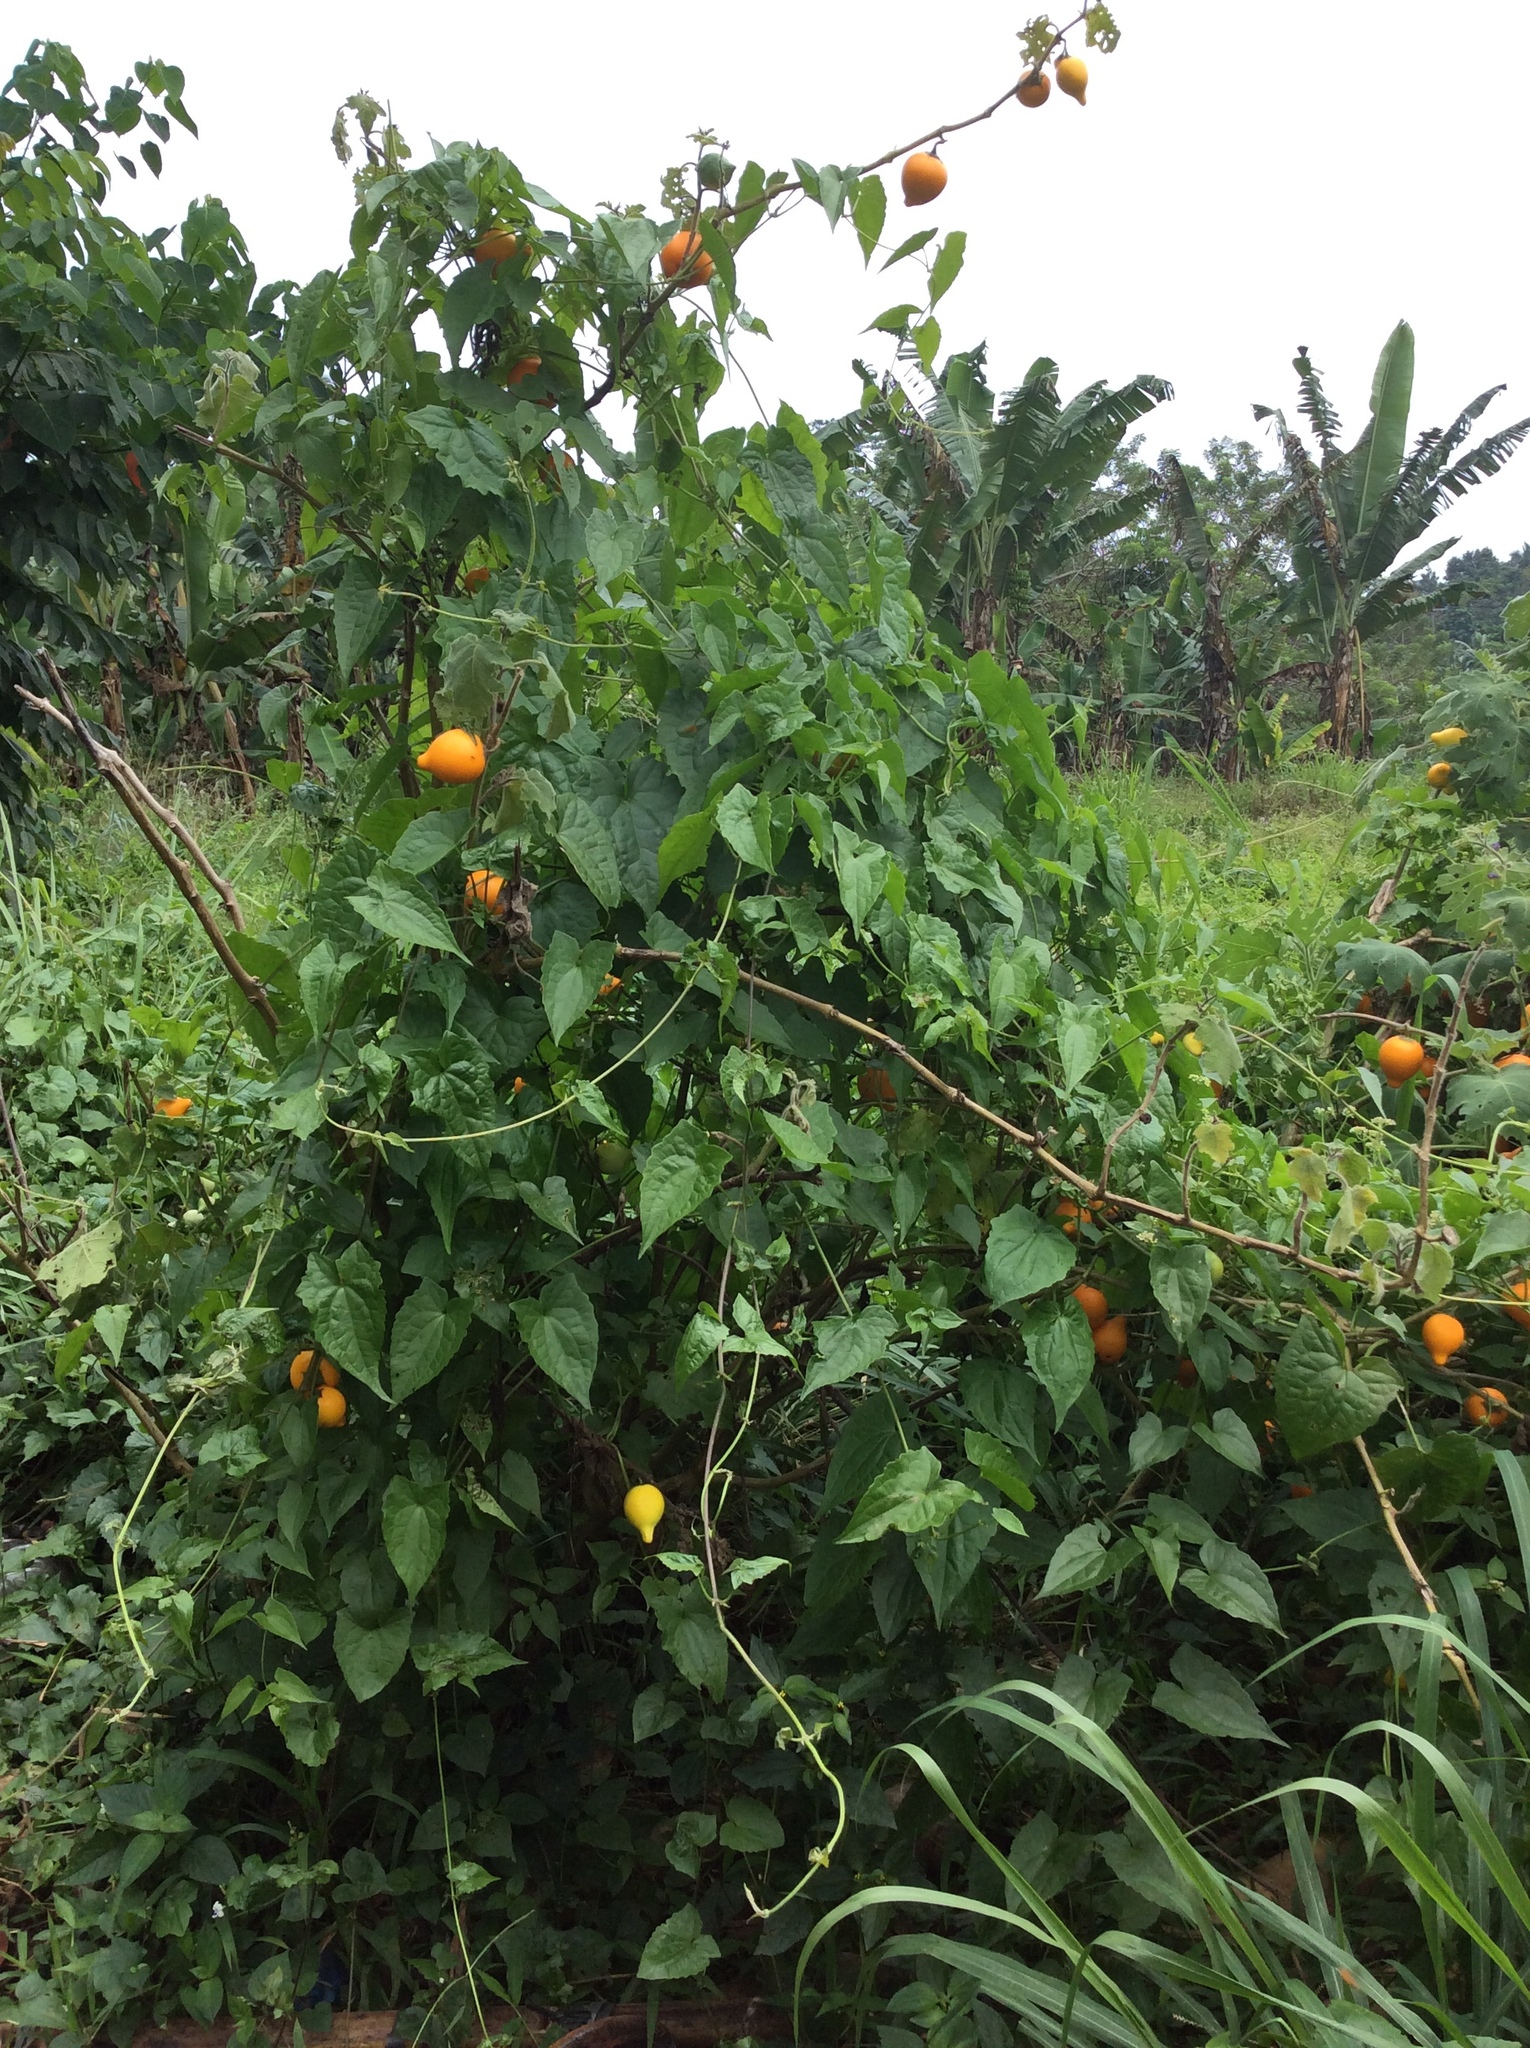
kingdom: Plantae
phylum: Tracheophyta
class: Magnoliopsida
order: Solanales
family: Solanaceae
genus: Solanum
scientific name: Solanum mammosum
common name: Nipple fruit
